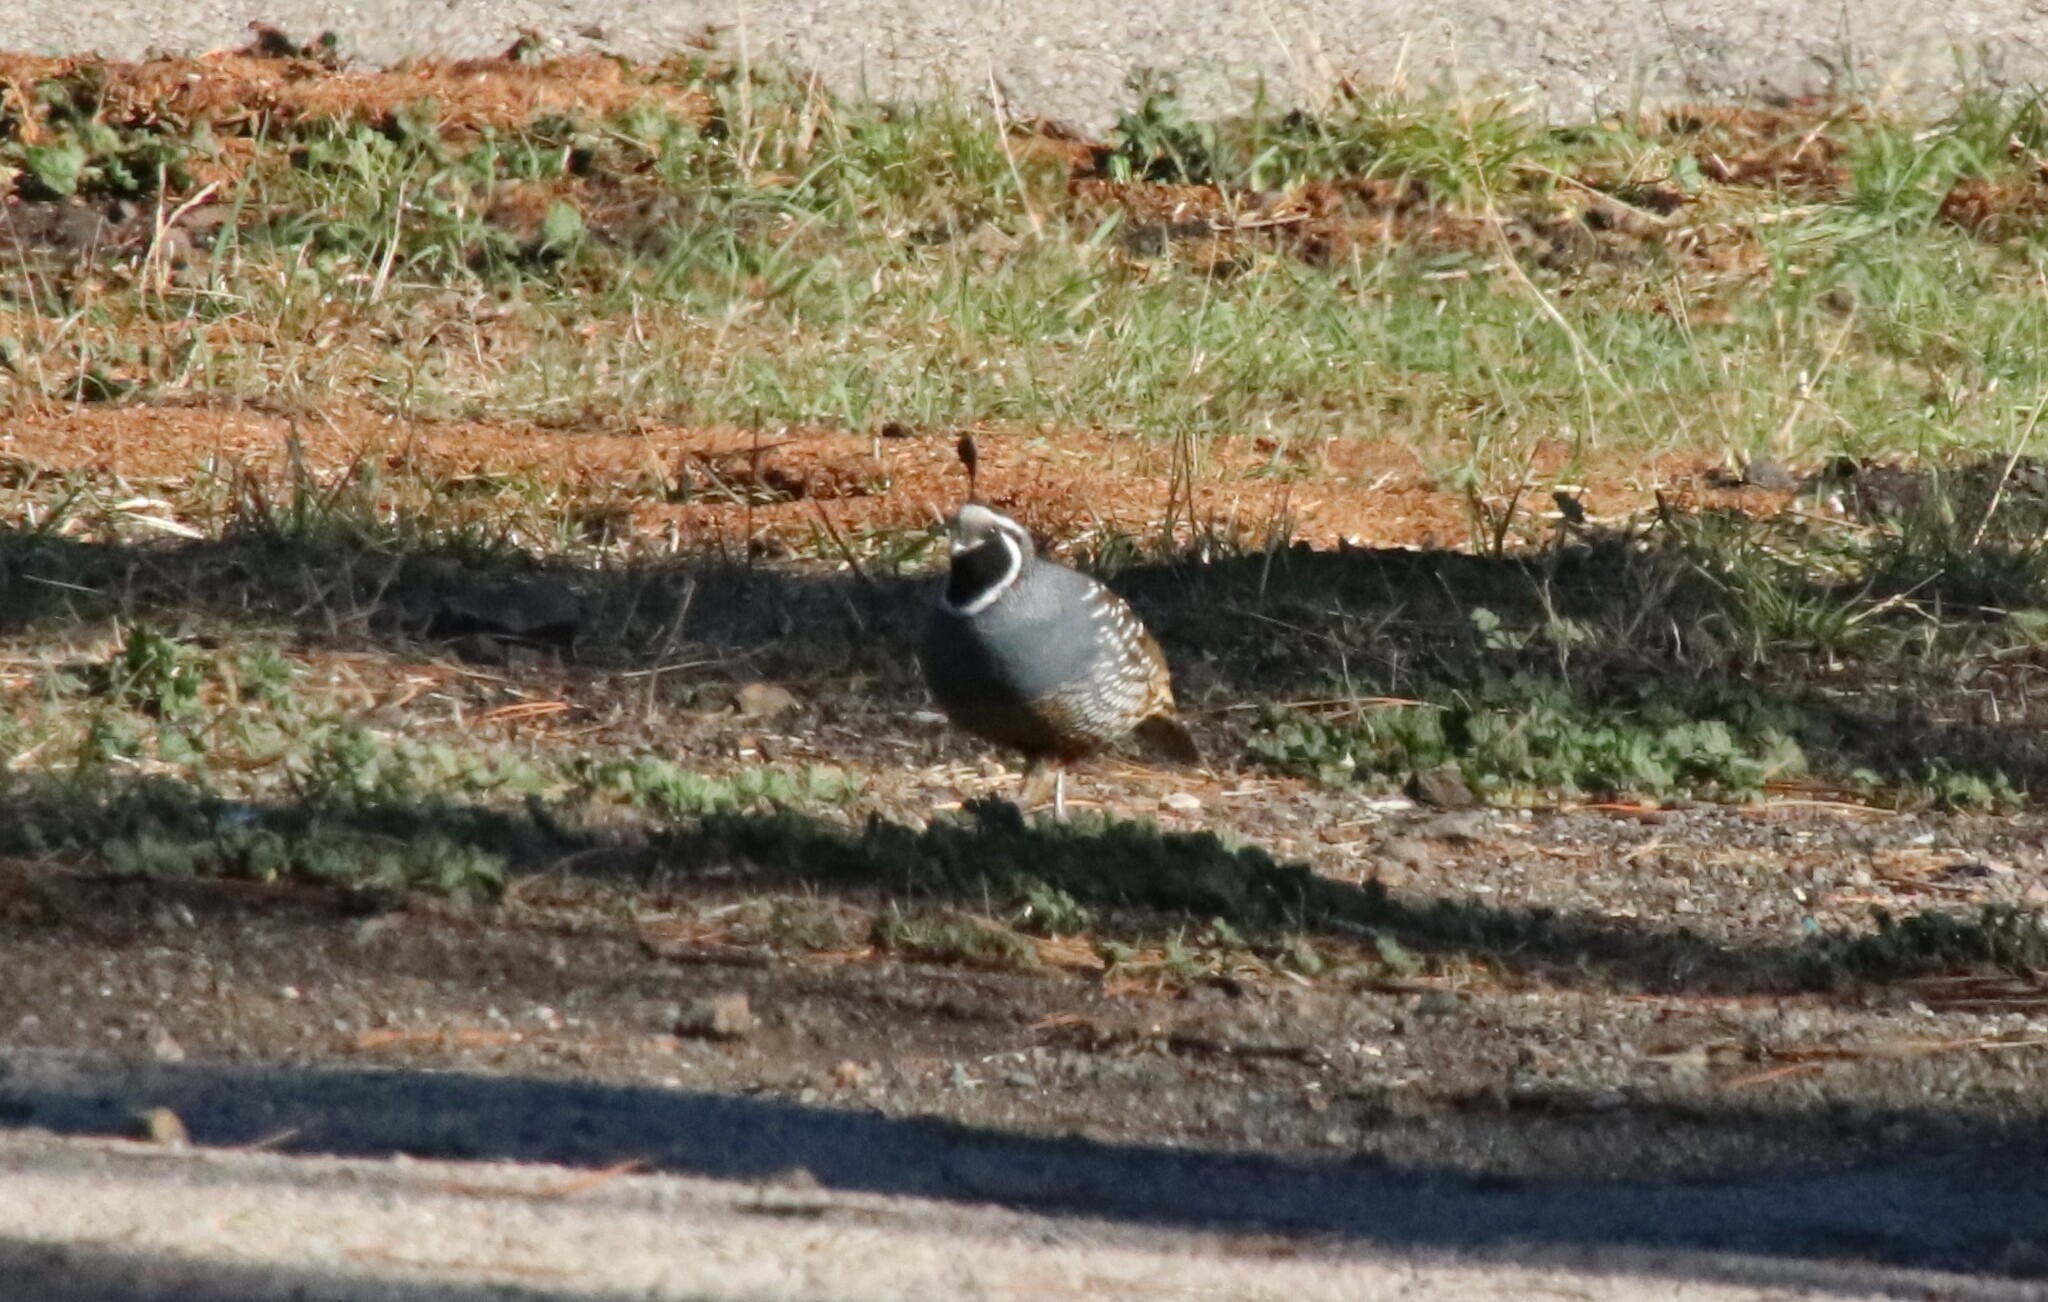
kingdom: Animalia
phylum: Chordata
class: Aves
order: Galliformes
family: Odontophoridae
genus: Callipepla
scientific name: Callipepla californica
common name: California quail
